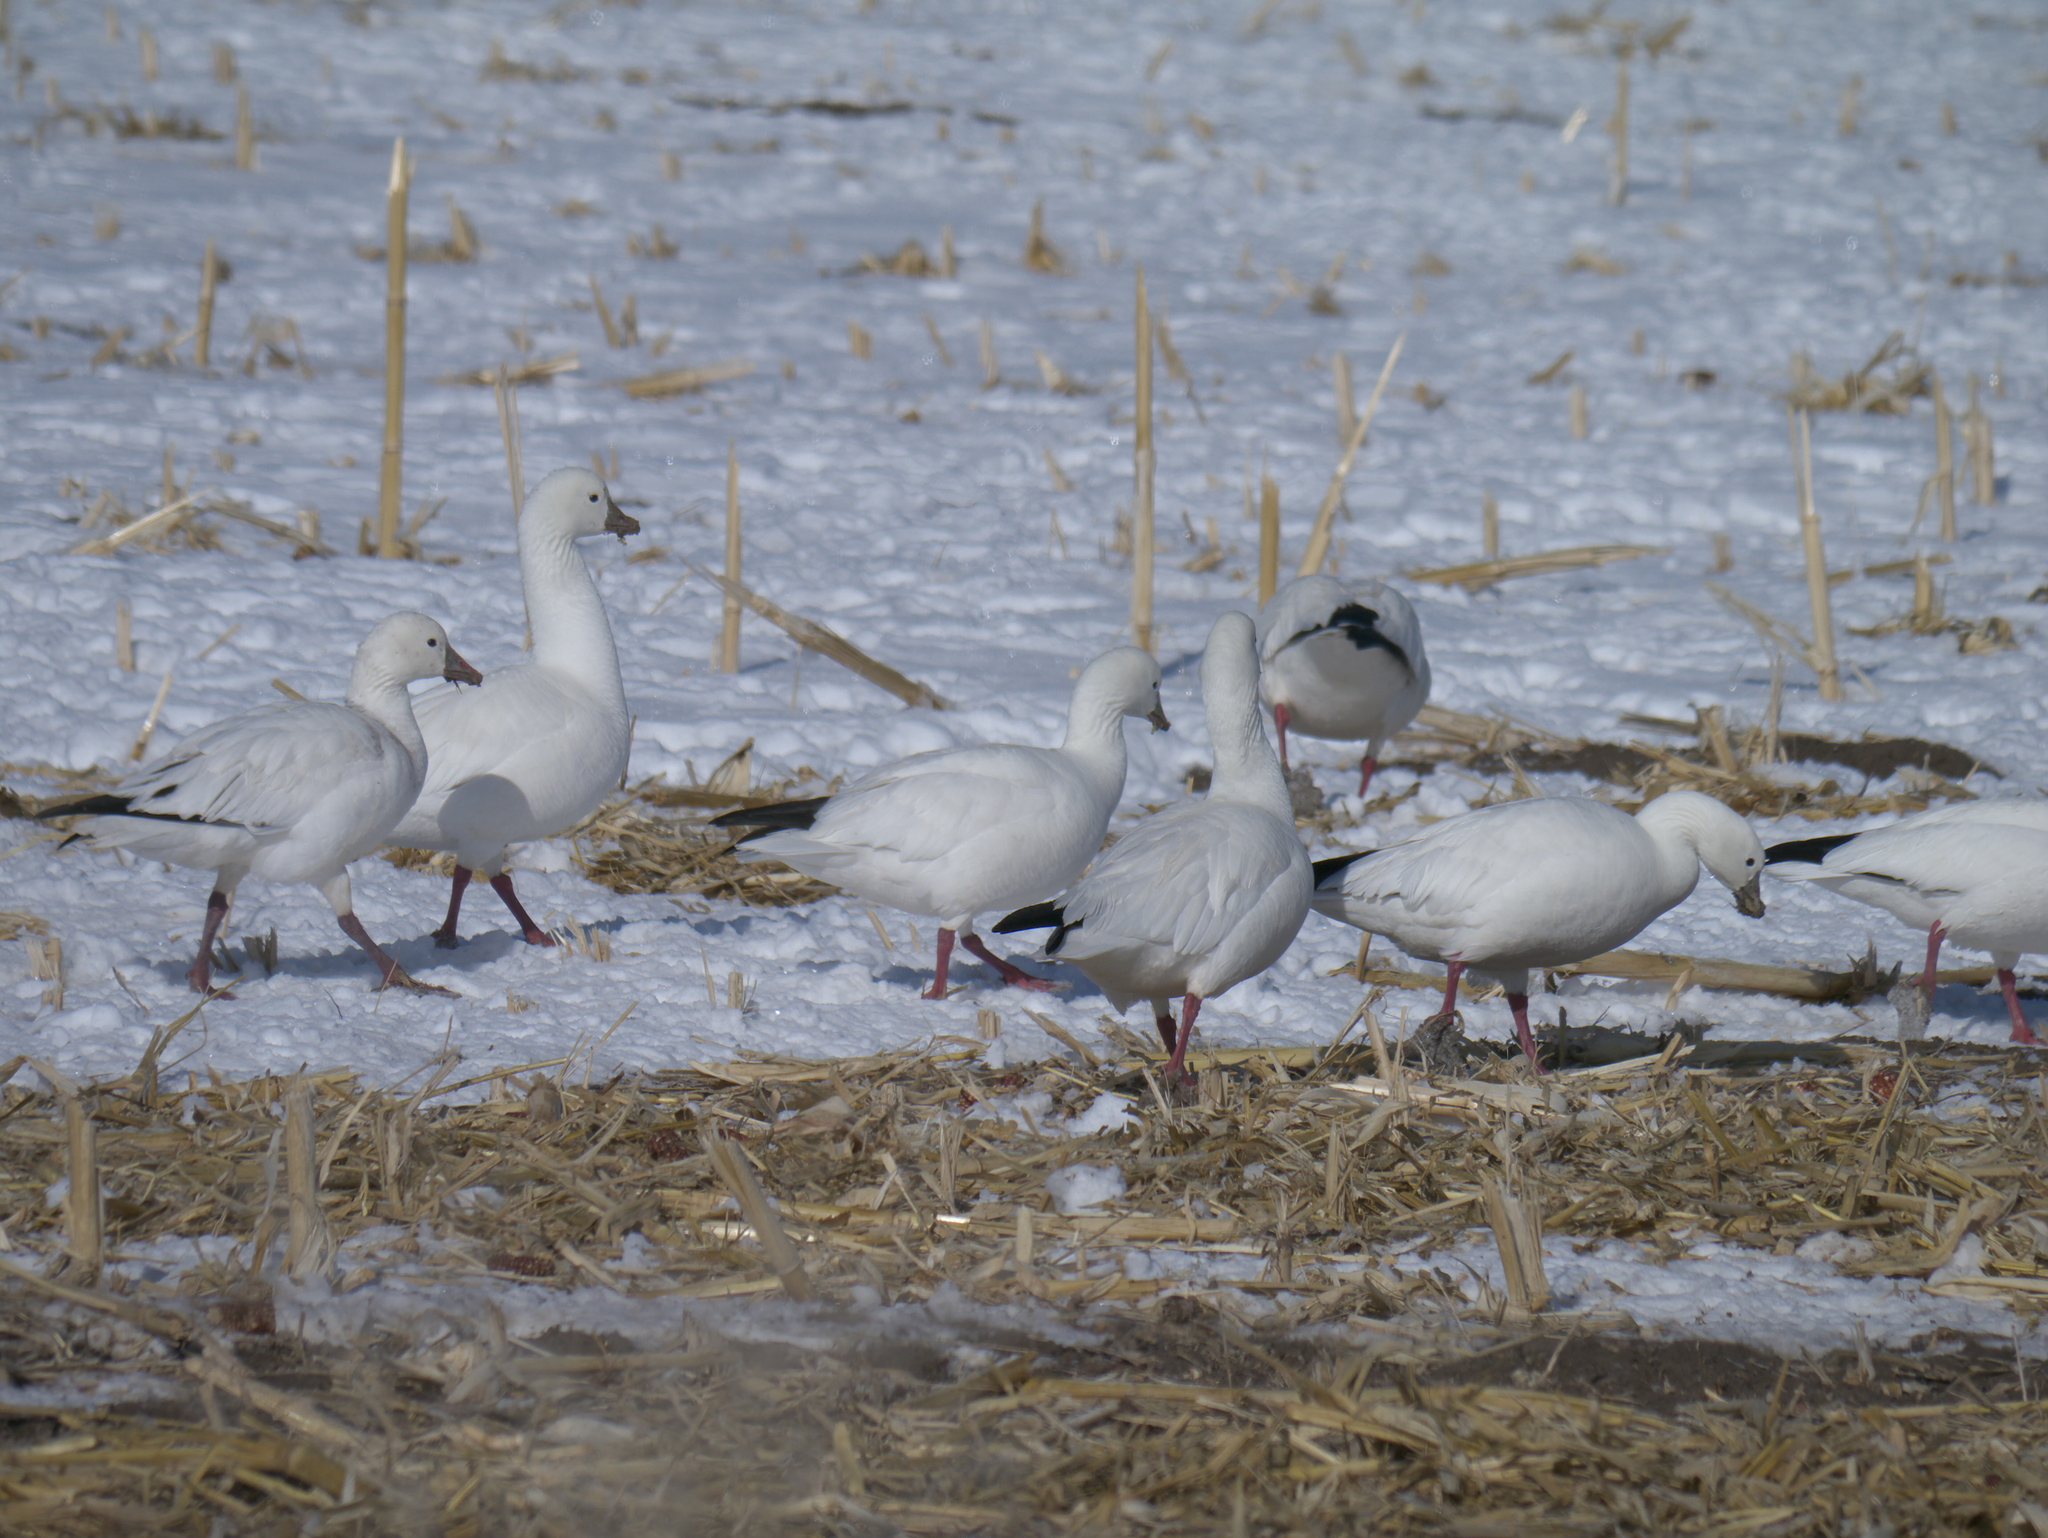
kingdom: Animalia
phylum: Chordata
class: Aves
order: Anseriformes
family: Anatidae
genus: Anser
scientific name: Anser caerulescens
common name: Snow goose
